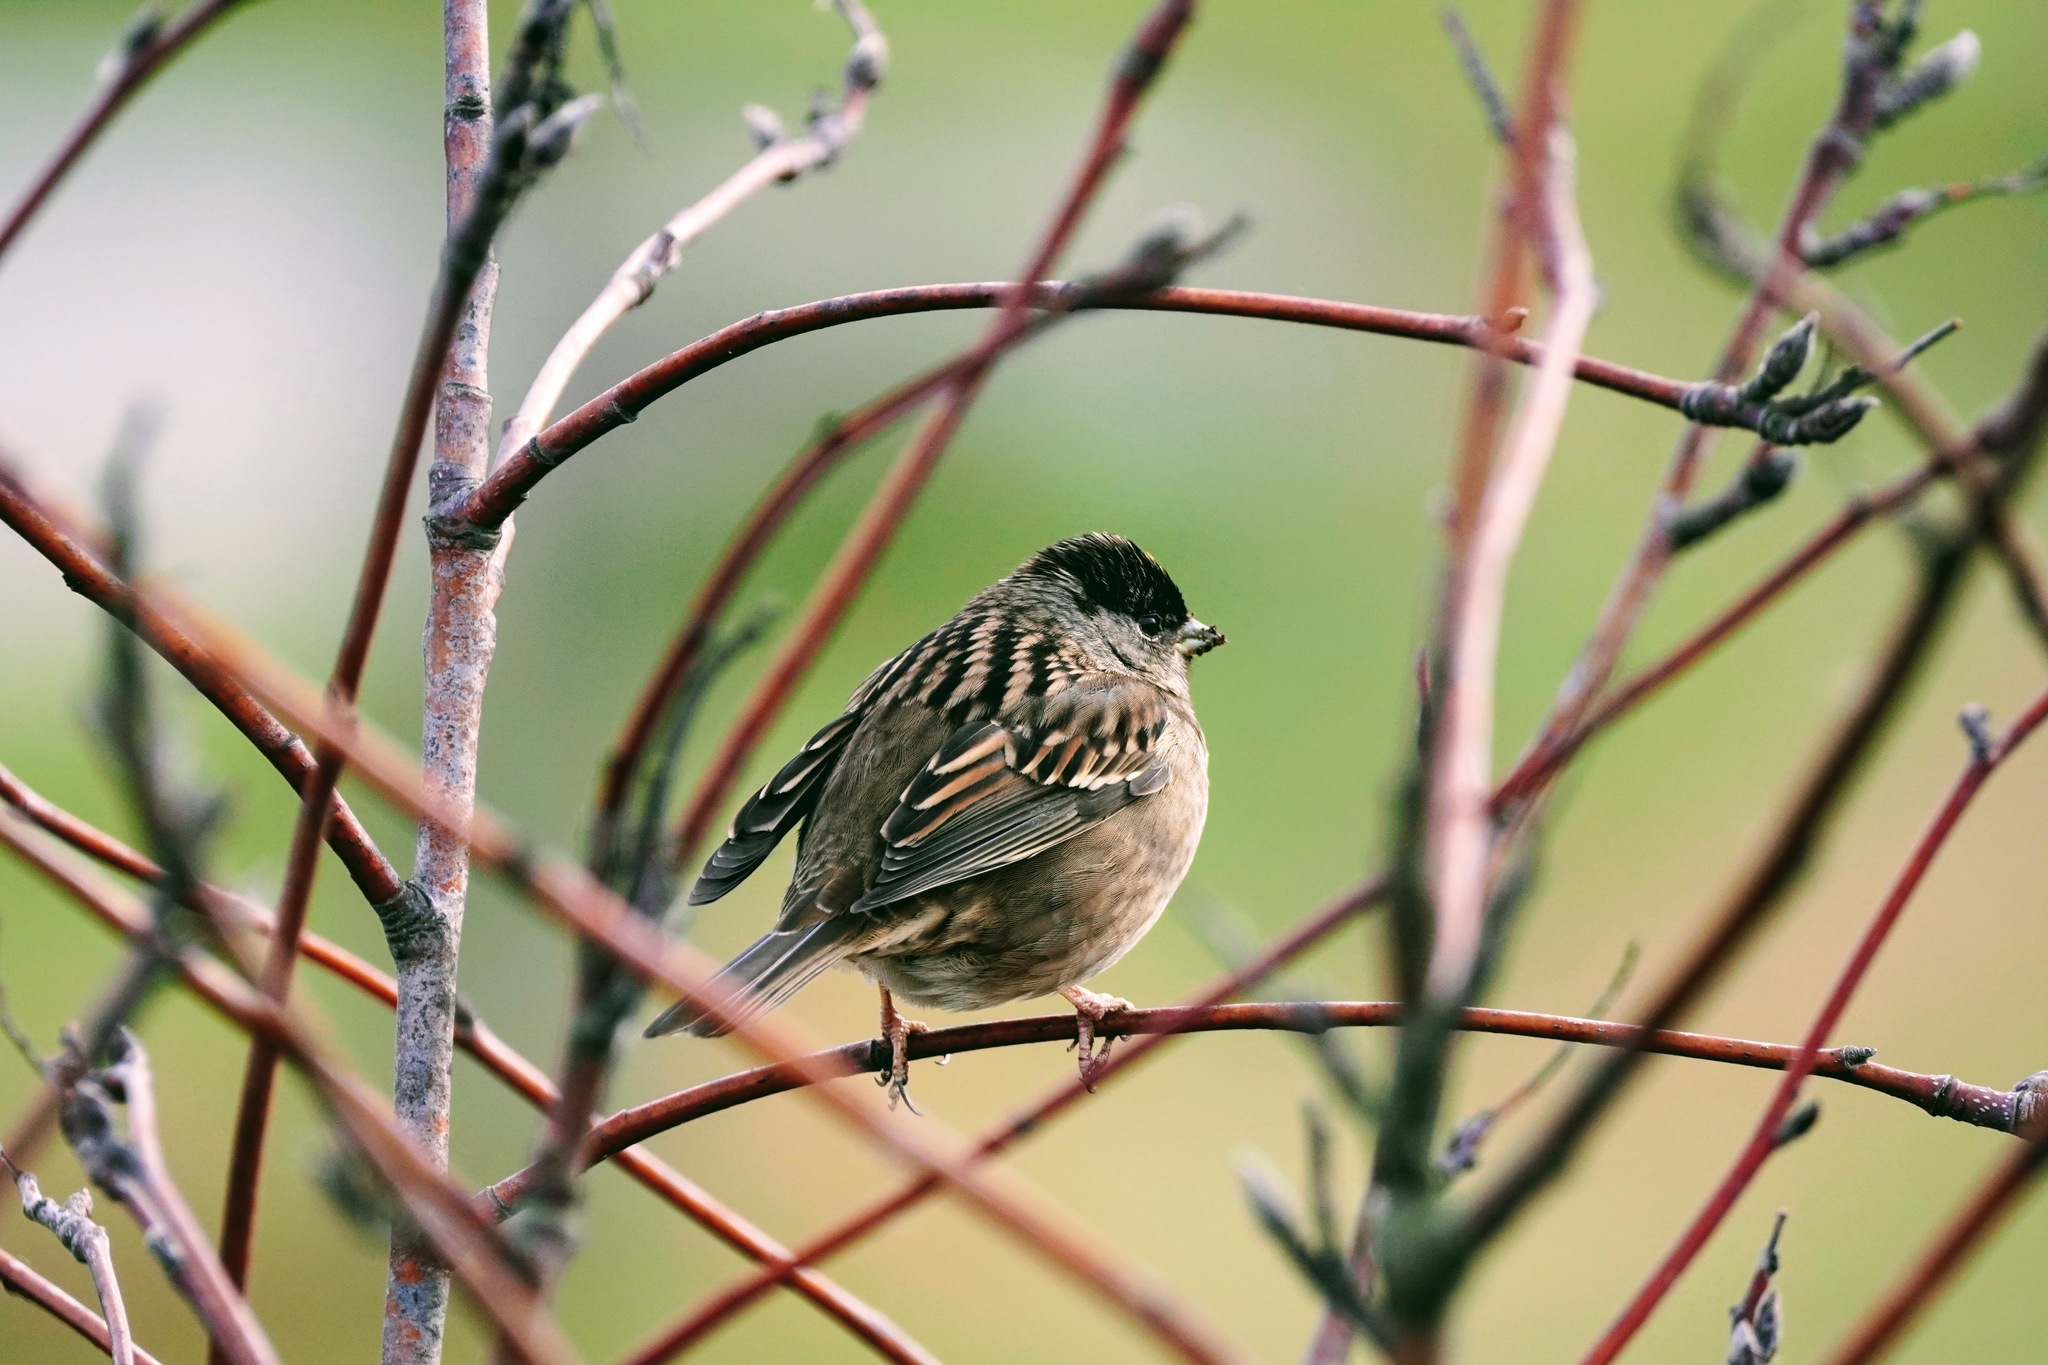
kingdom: Animalia
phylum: Chordata
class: Aves
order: Passeriformes
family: Passerellidae
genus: Zonotrichia
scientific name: Zonotrichia atricapilla
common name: Golden-crowned sparrow
